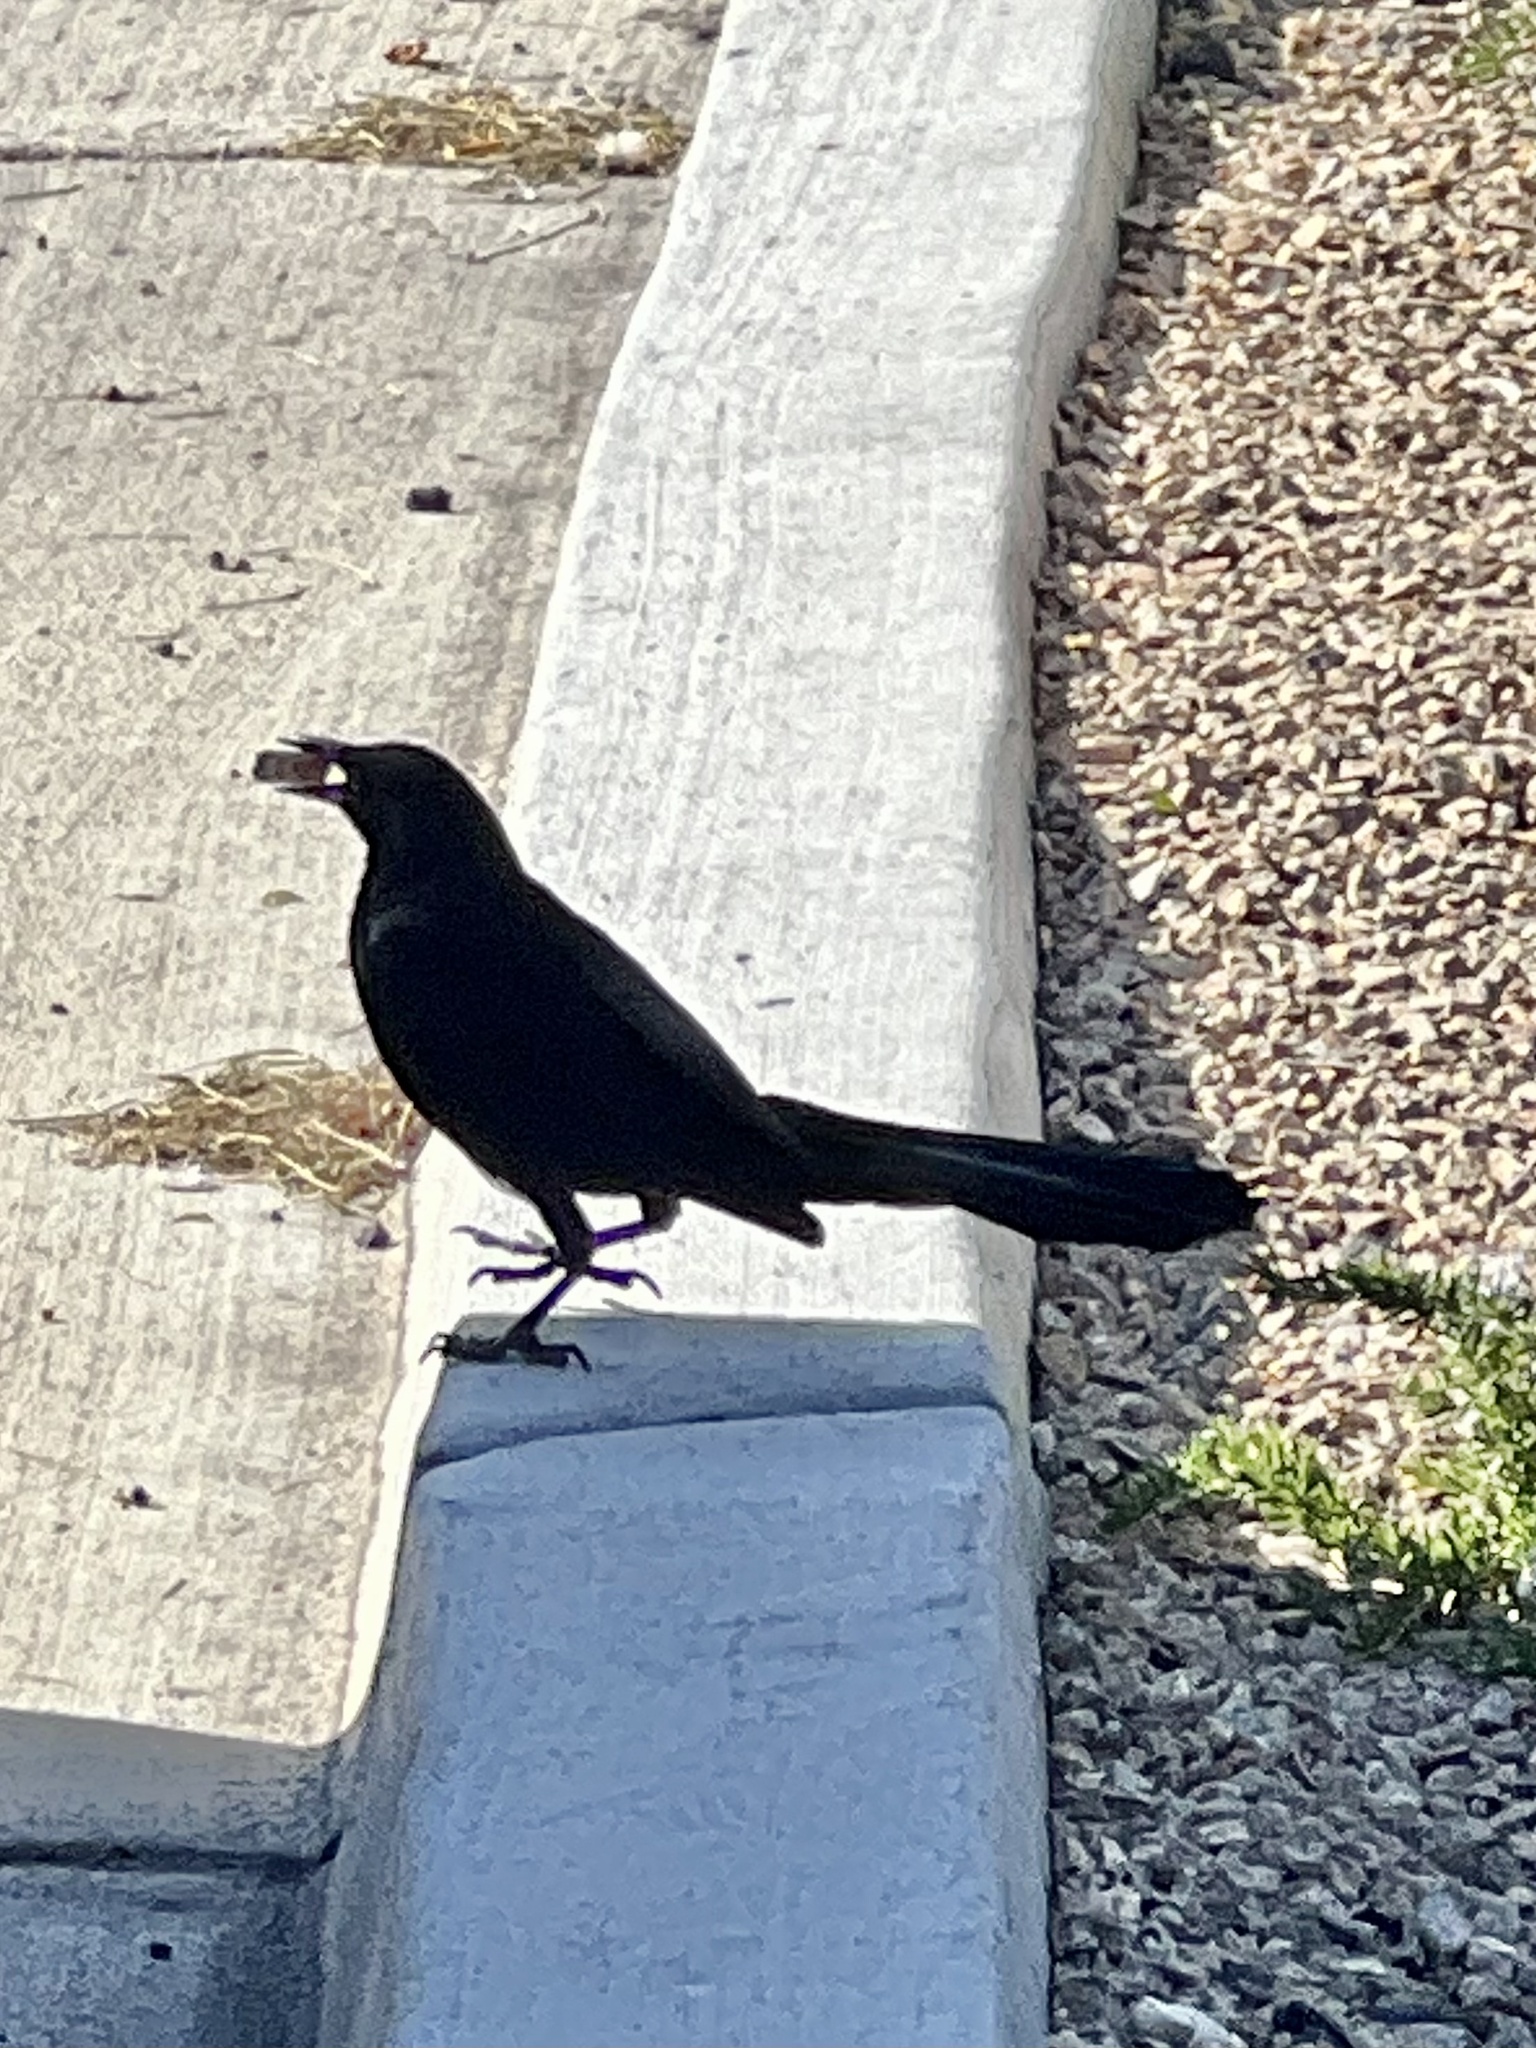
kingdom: Animalia
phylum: Chordata
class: Aves
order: Passeriformes
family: Icteridae
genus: Quiscalus
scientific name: Quiscalus mexicanus
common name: Great-tailed grackle
